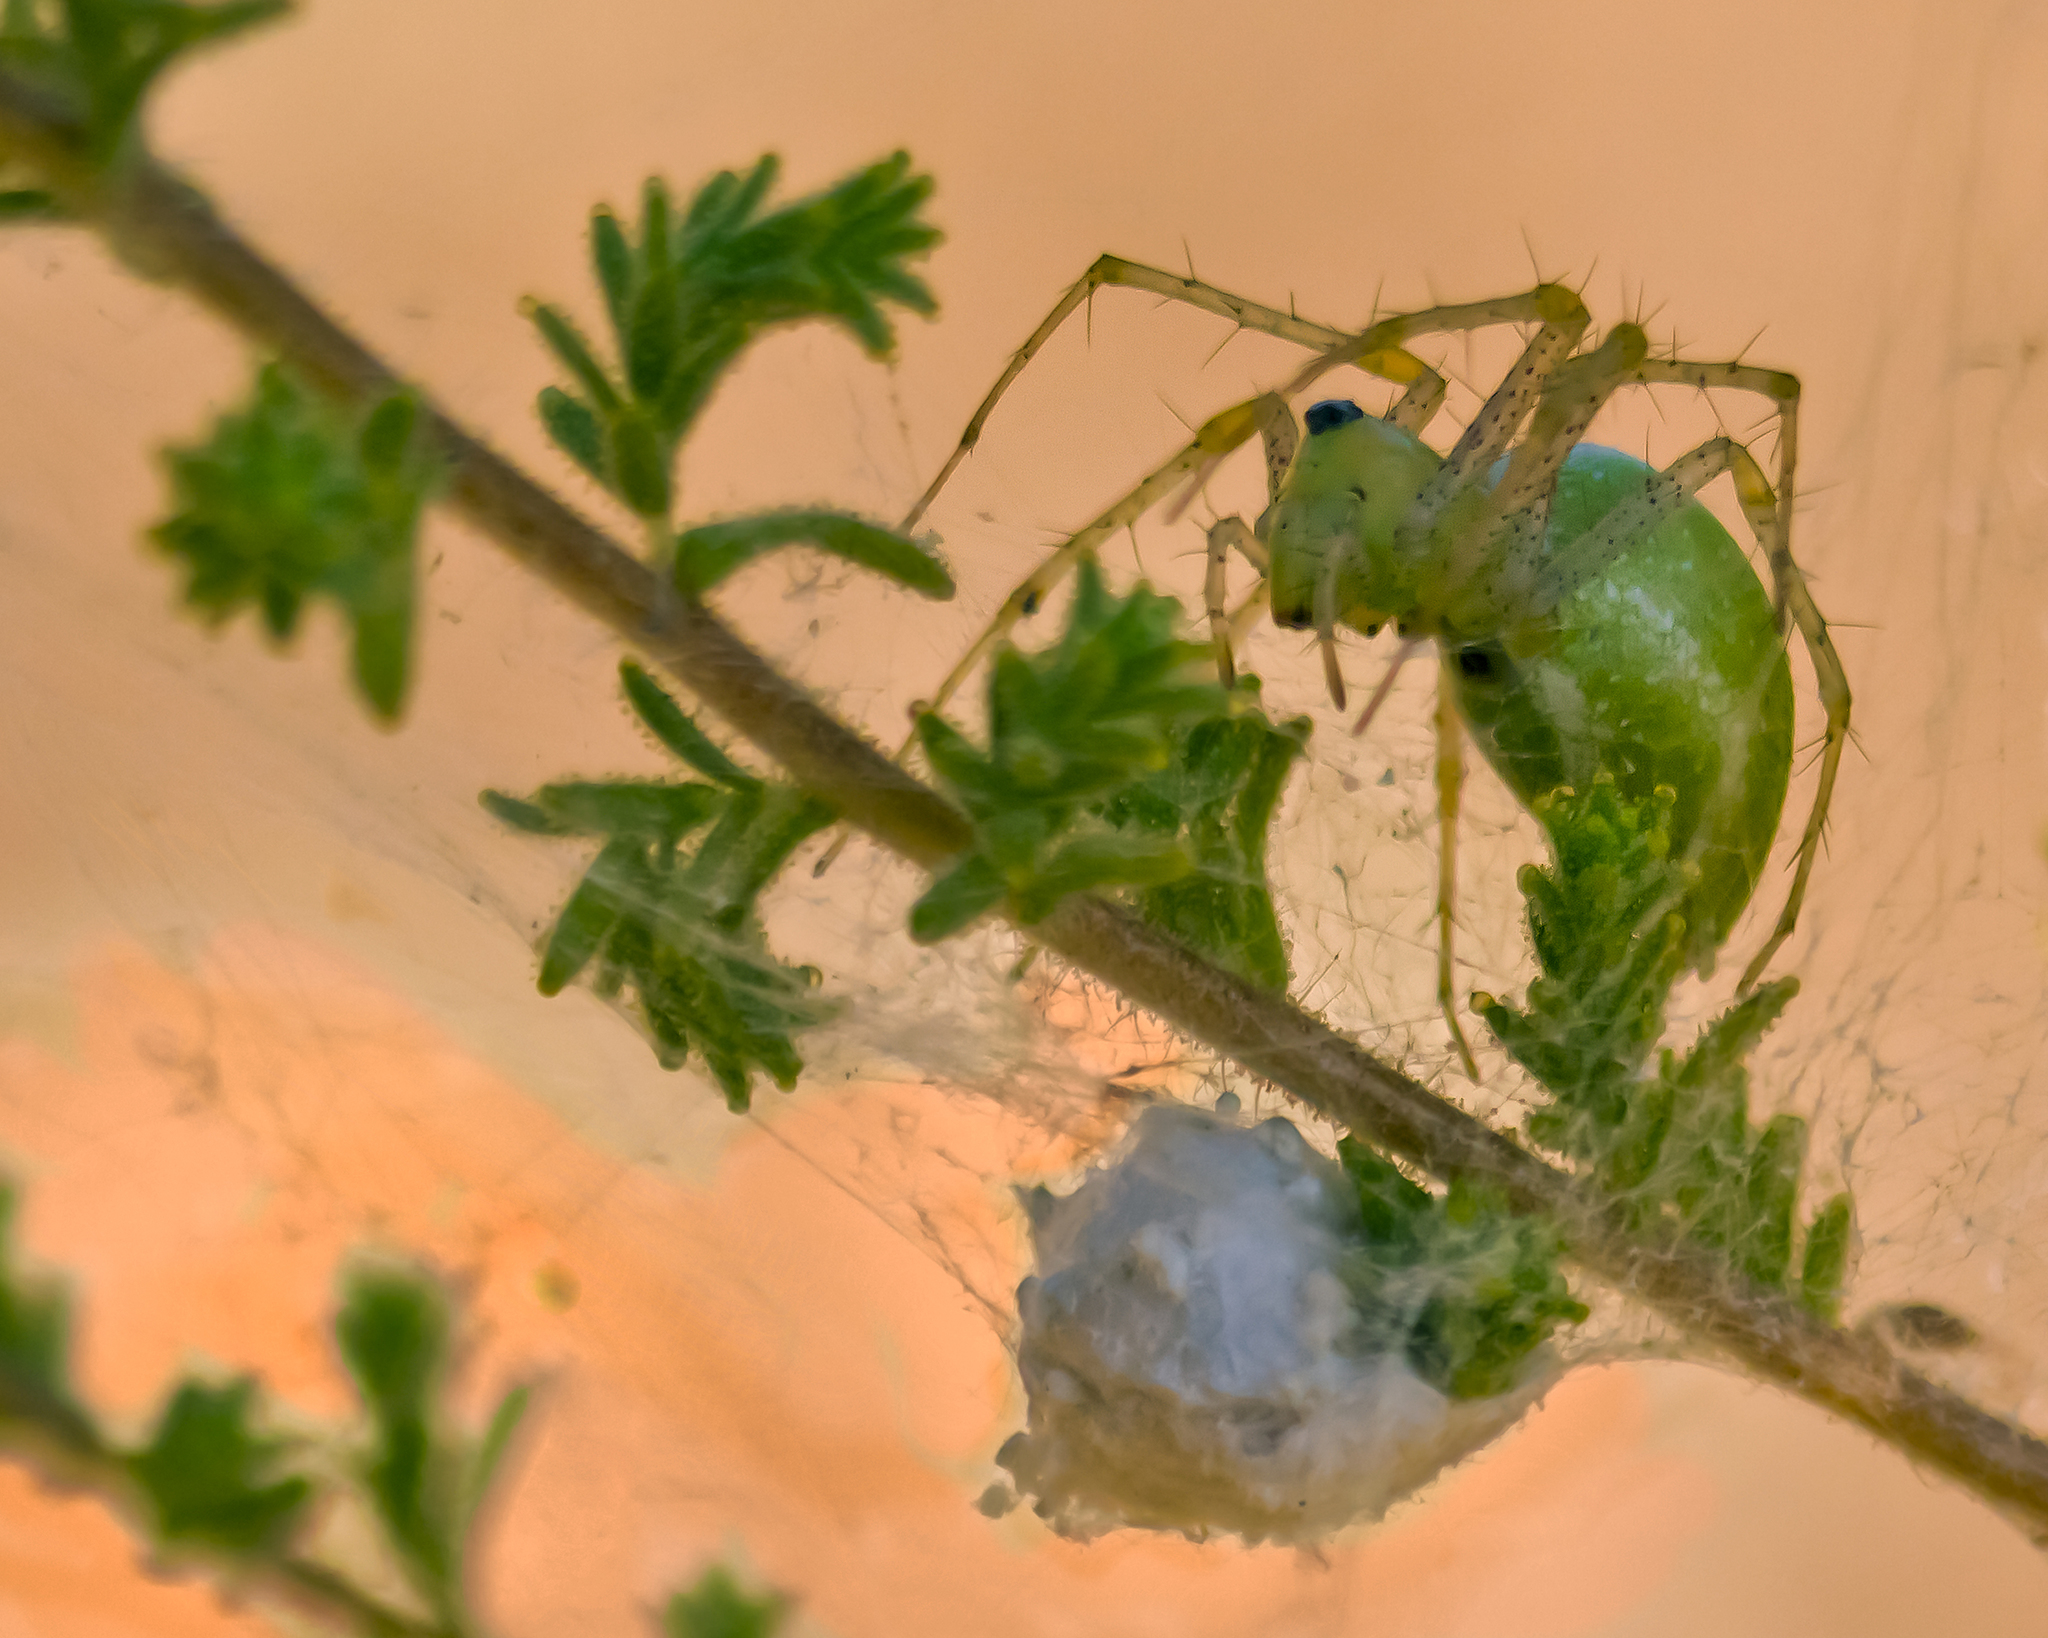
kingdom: Animalia
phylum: Arthropoda
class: Arachnida
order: Araneae
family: Oxyopidae
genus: Peucetia
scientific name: Peucetia viridans
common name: Lynx spiders
